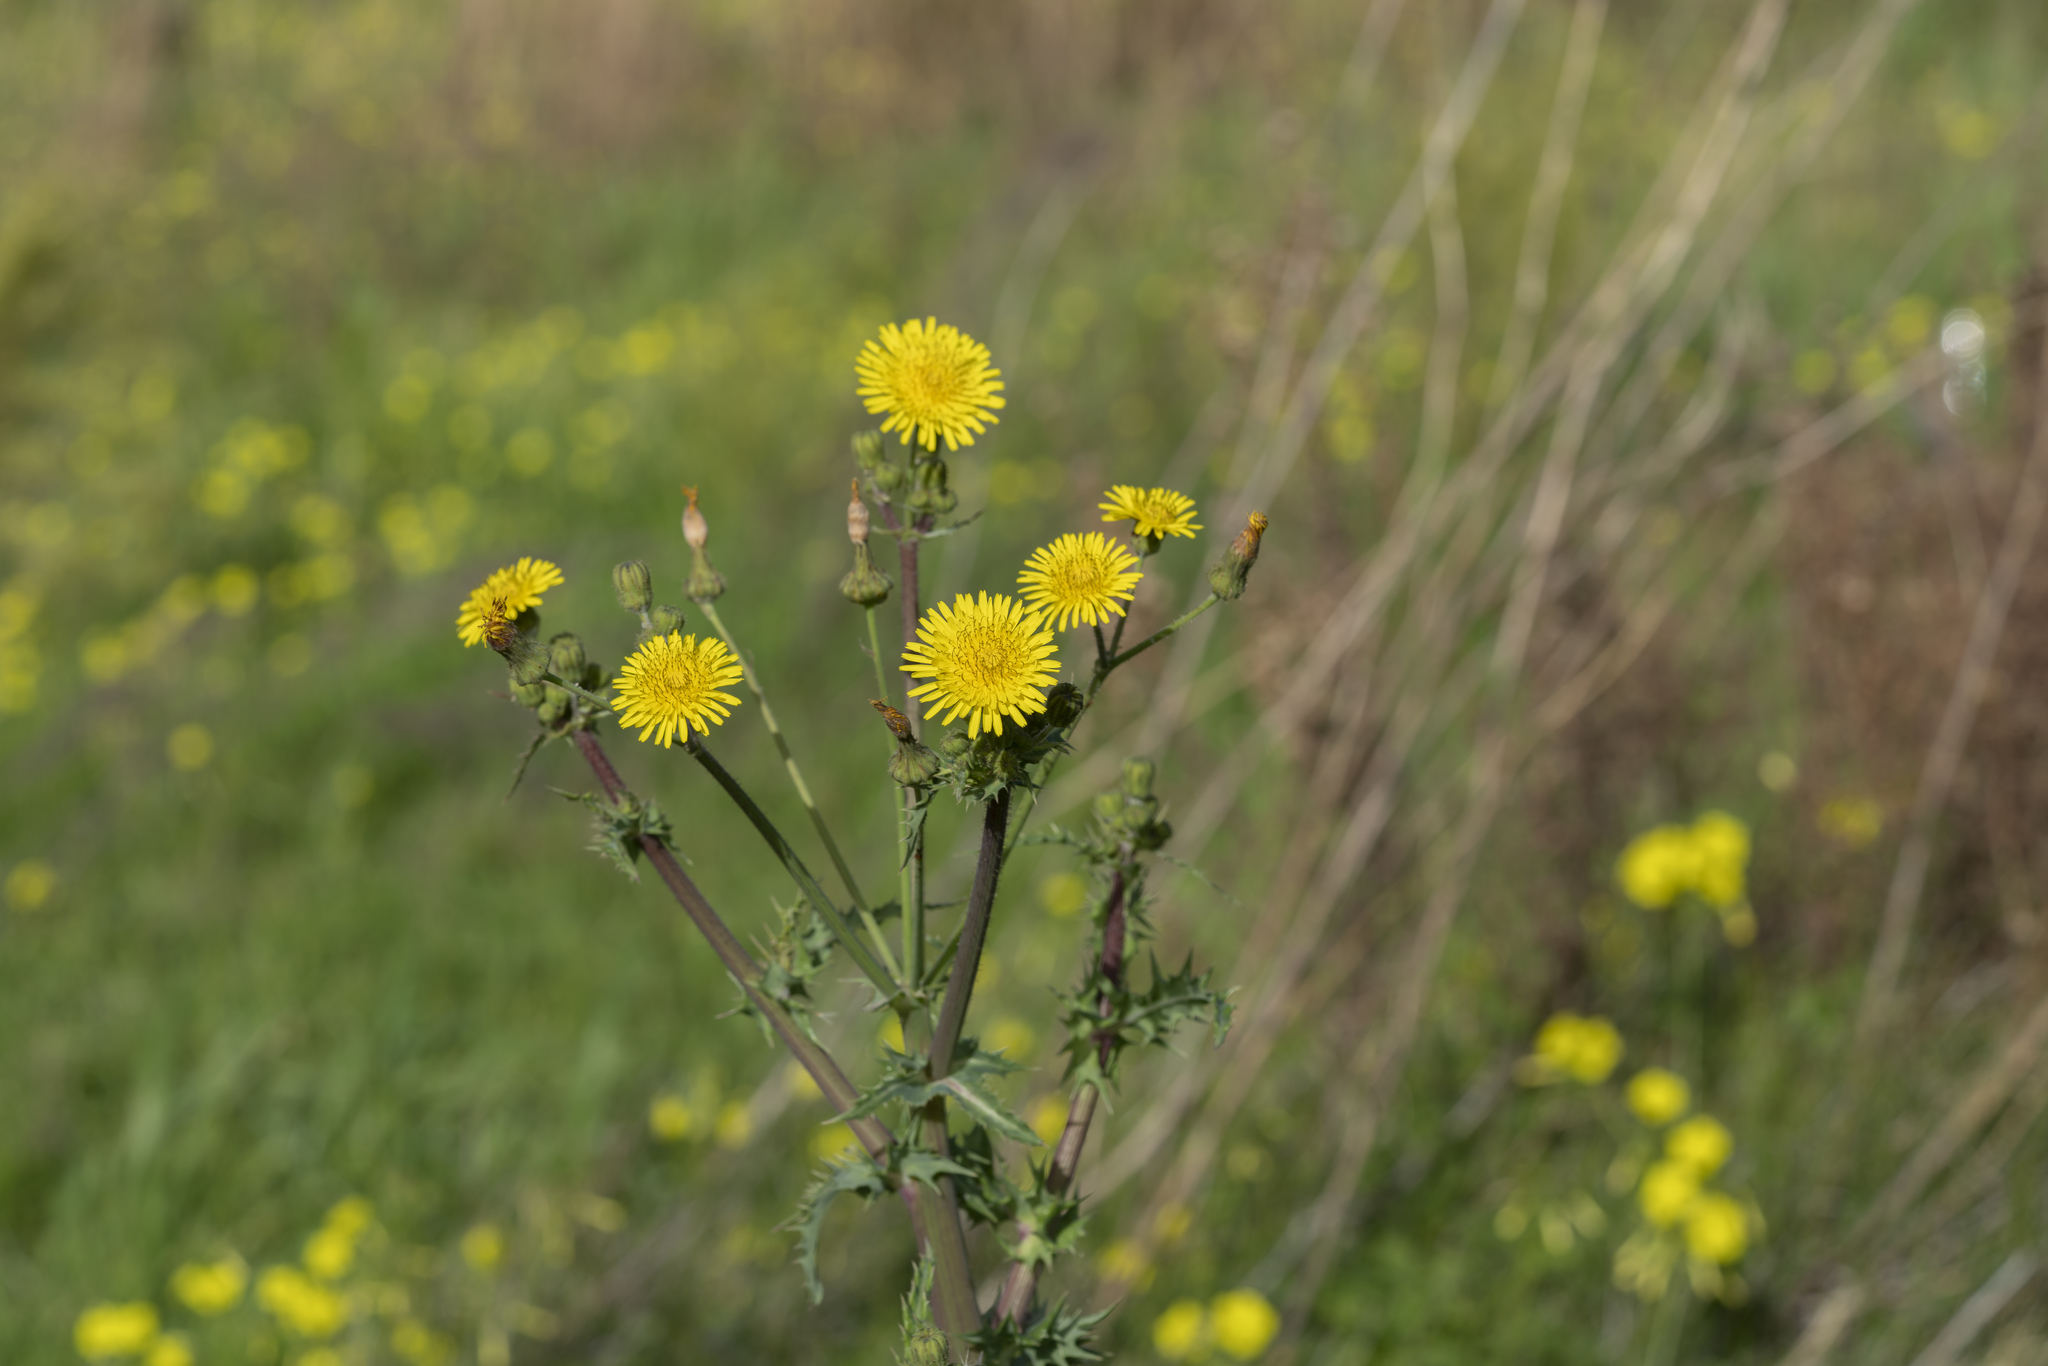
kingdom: Plantae
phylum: Tracheophyta
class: Magnoliopsida
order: Asterales
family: Asteraceae
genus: Sonchus
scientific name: Sonchus asper
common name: Prickly sow-thistle
